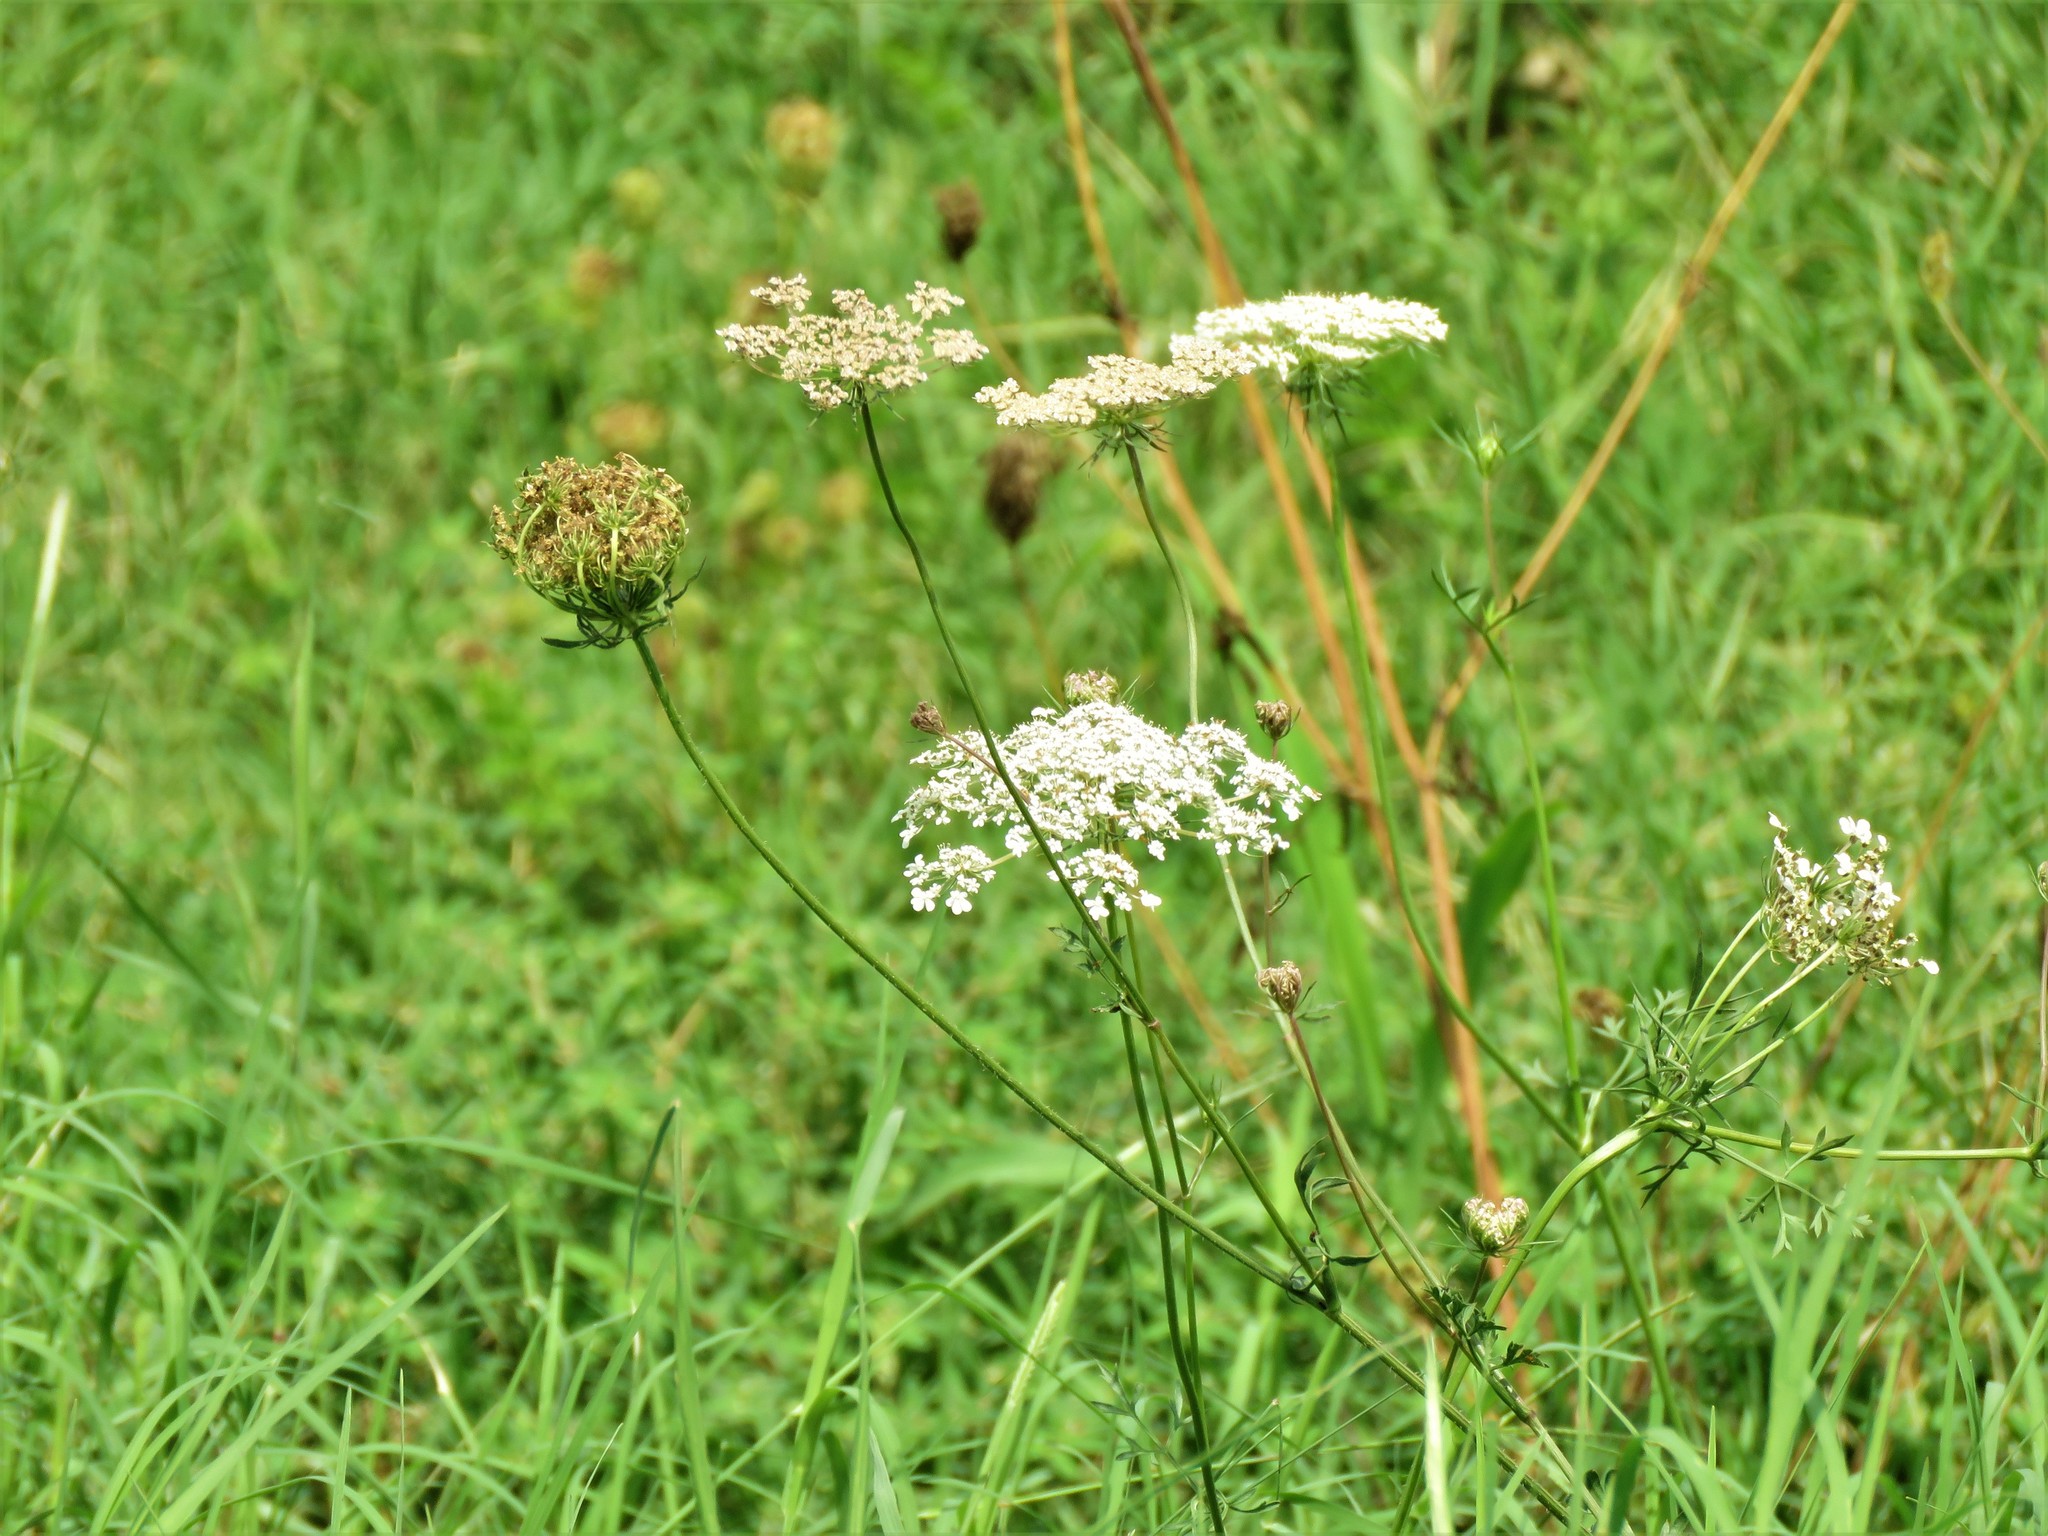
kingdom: Plantae
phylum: Tracheophyta
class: Magnoliopsida
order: Apiales
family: Apiaceae
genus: Daucus
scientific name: Daucus carota
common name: Wild carrot
